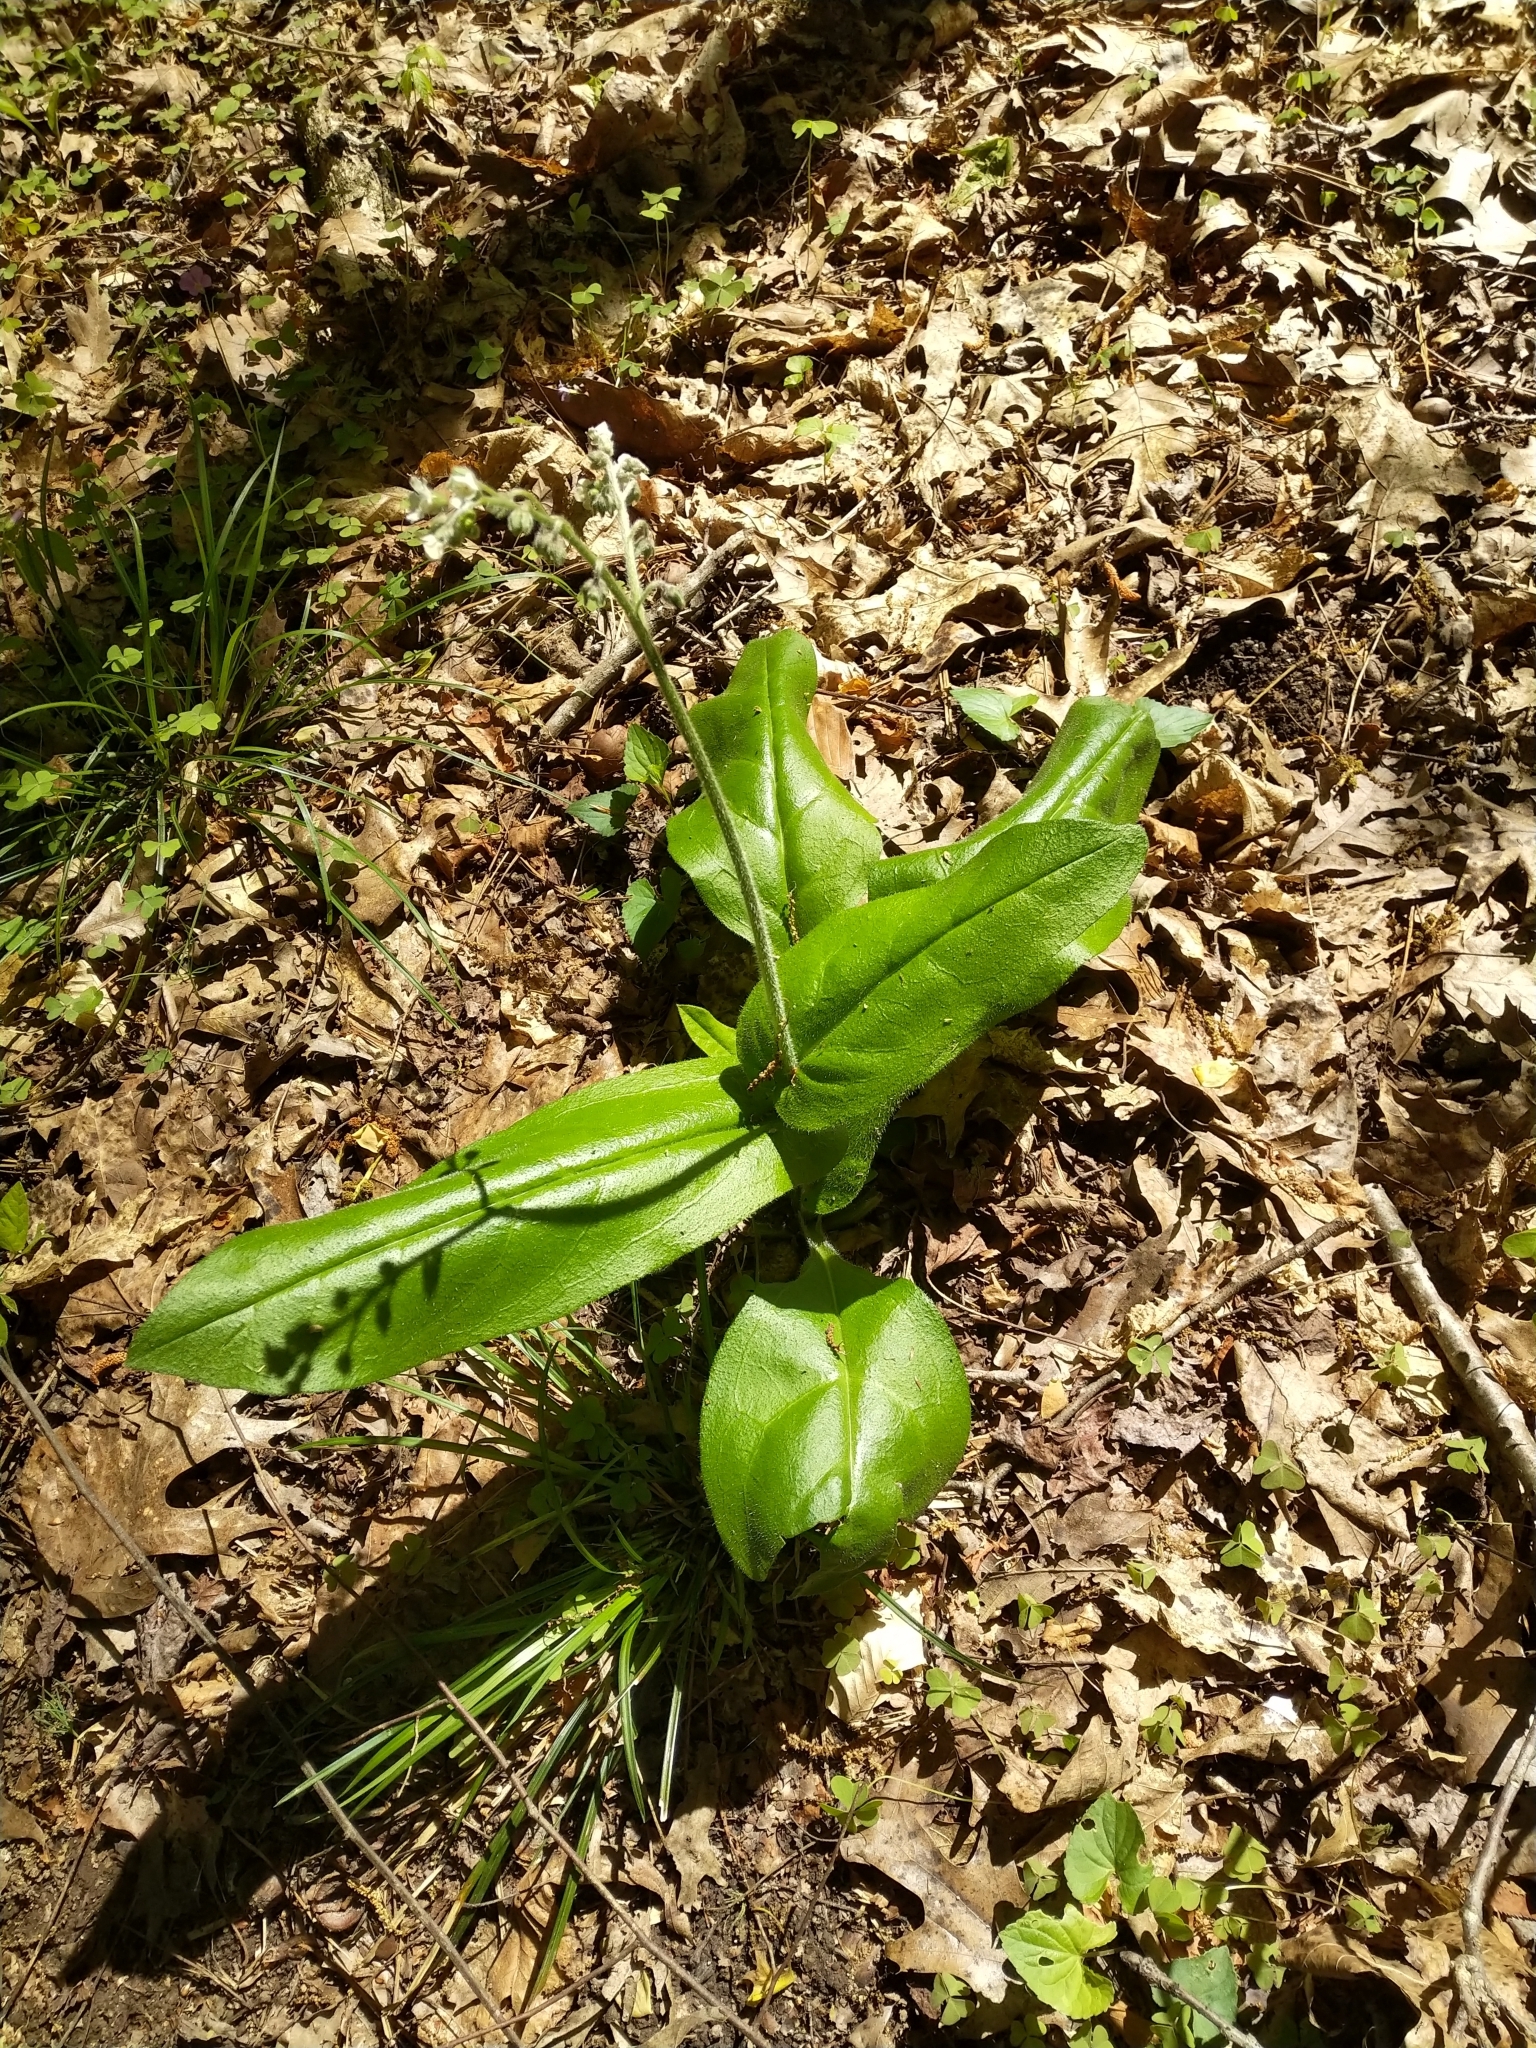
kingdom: Plantae
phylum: Tracheophyta
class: Magnoliopsida
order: Boraginales
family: Boraginaceae
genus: Andersonglossum
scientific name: Andersonglossum virginianum
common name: Wild comfrey
